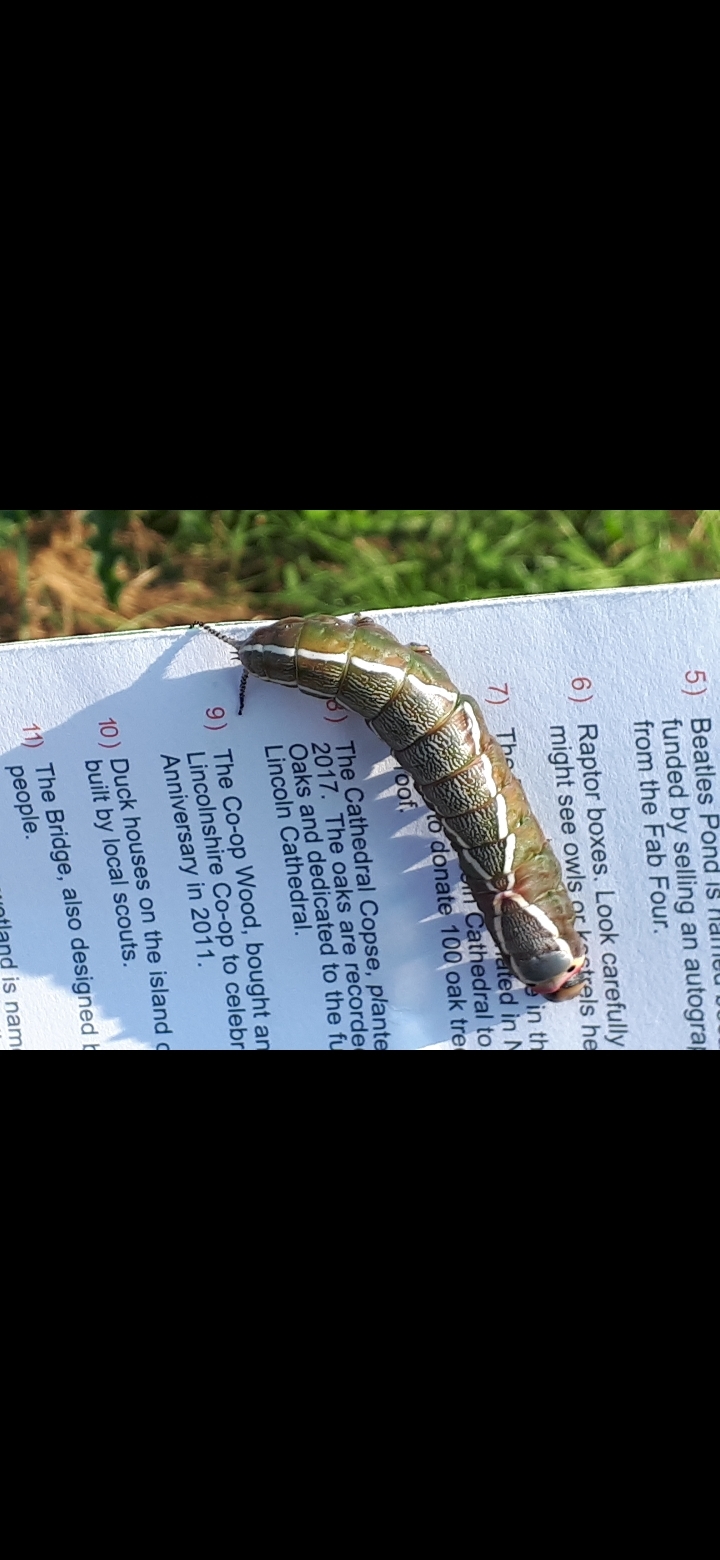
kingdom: Animalia
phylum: Arthropoda
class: Insecta
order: Lepidoptera
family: Notodontidae
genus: Cerura
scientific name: Cerura vinula
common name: Puss moth
